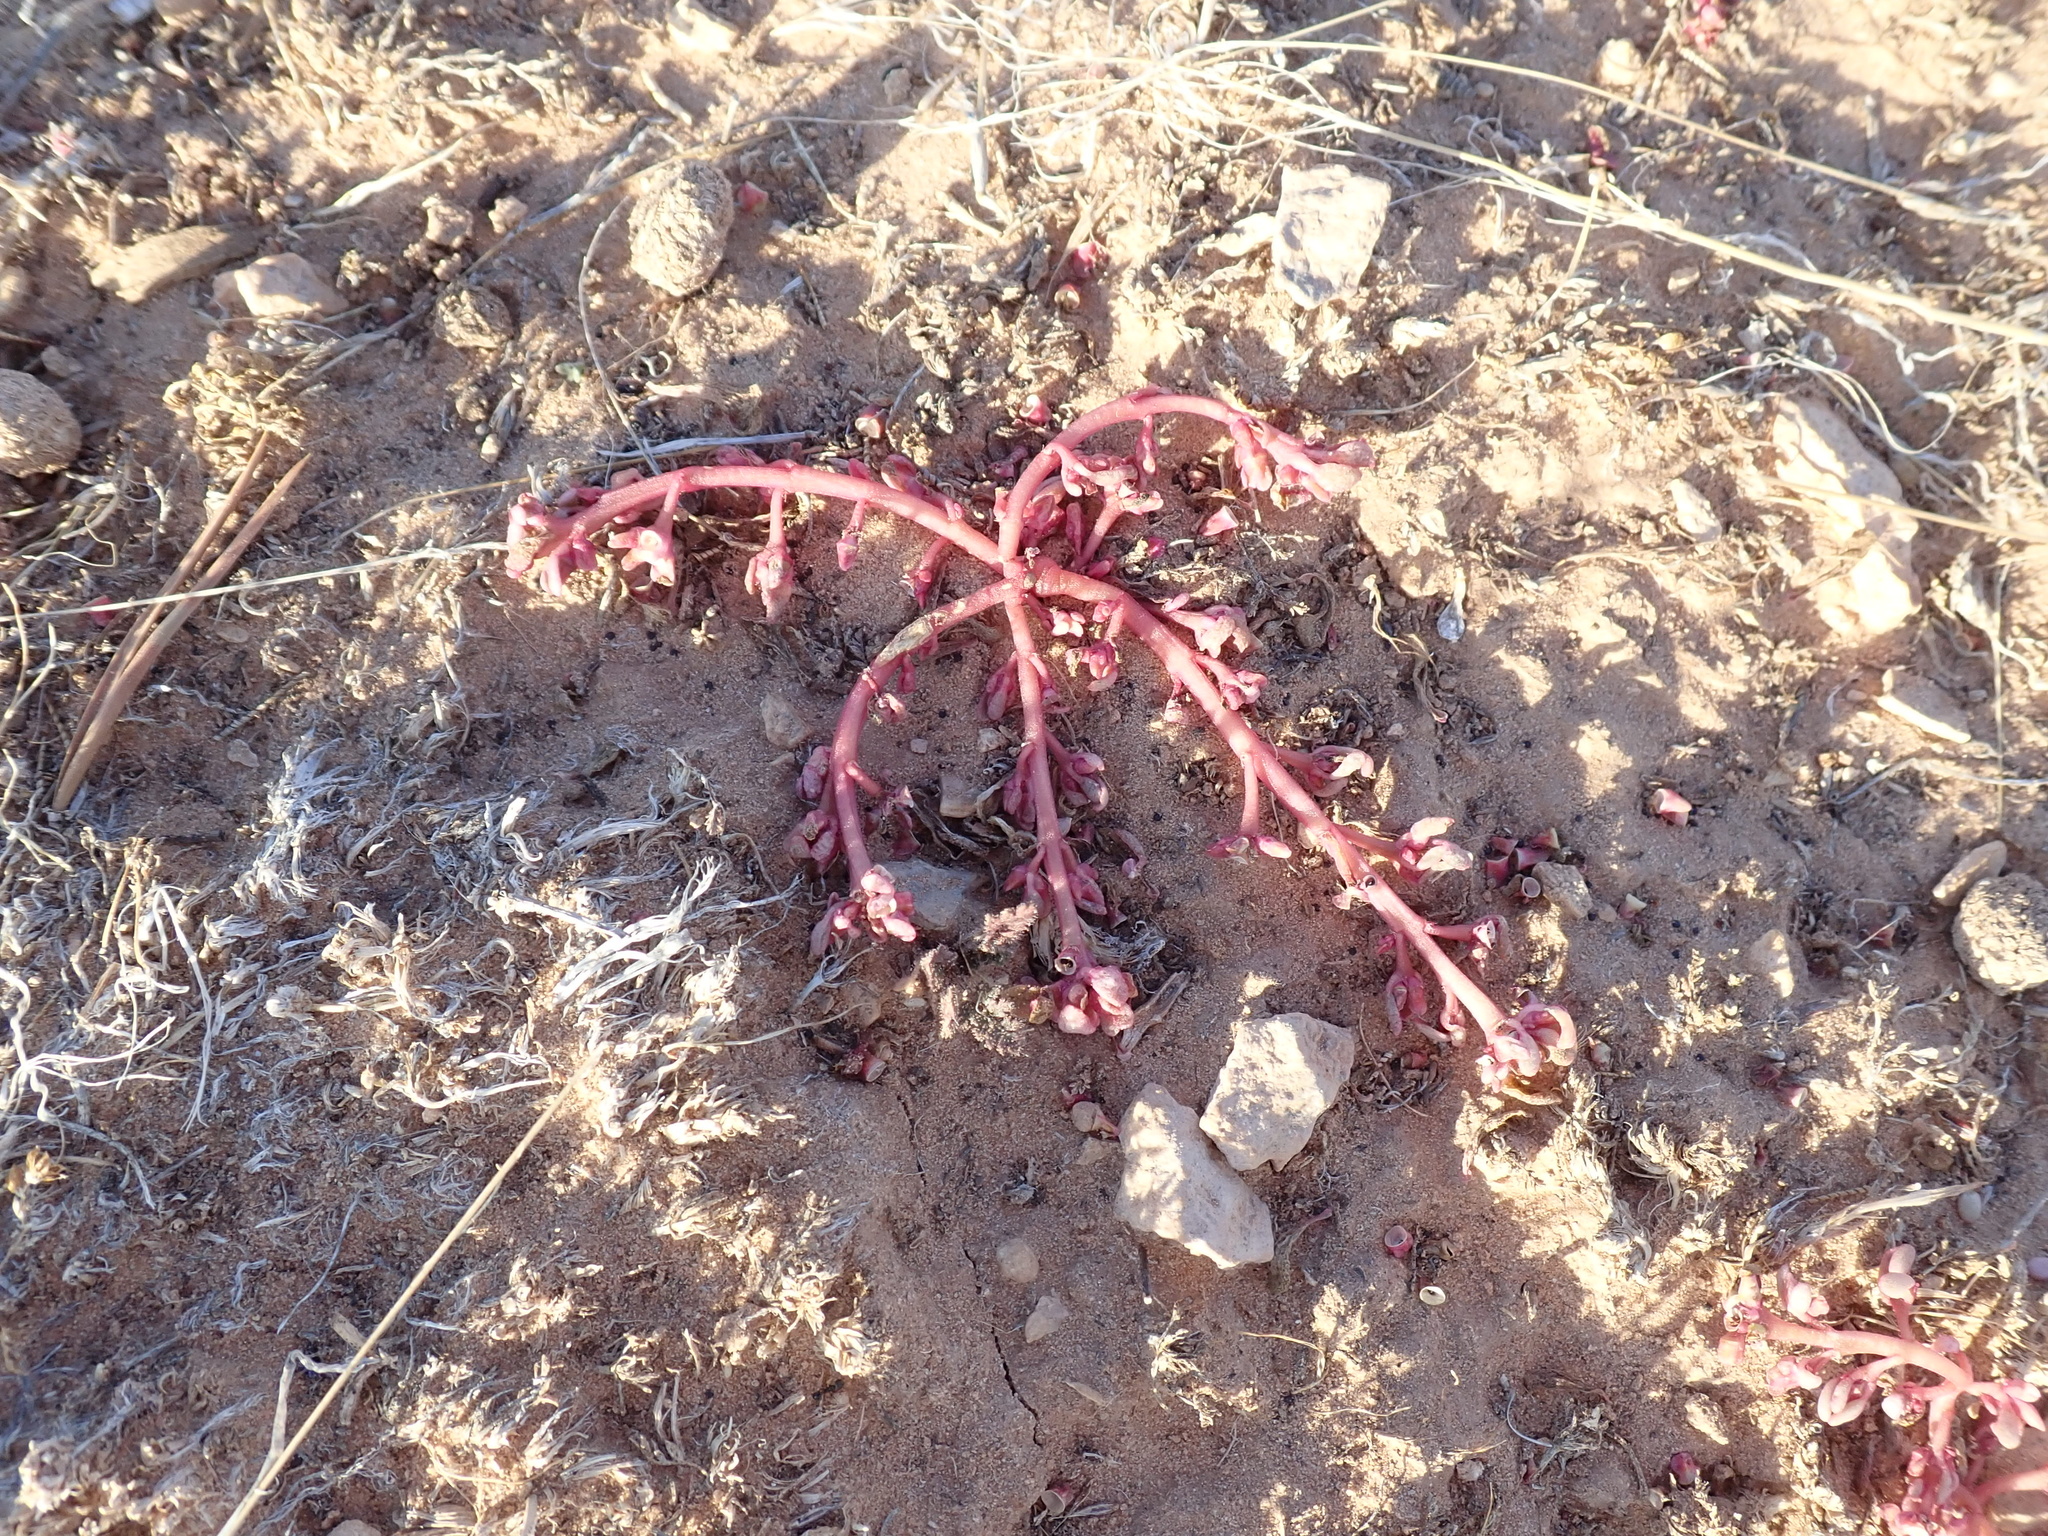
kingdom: Plantae
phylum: Tracheophyta
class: Magnoliopsida
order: Caryophyllales
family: Portulacaceae
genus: Portulaca
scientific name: Portulaca oleracea
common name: Common purslane
